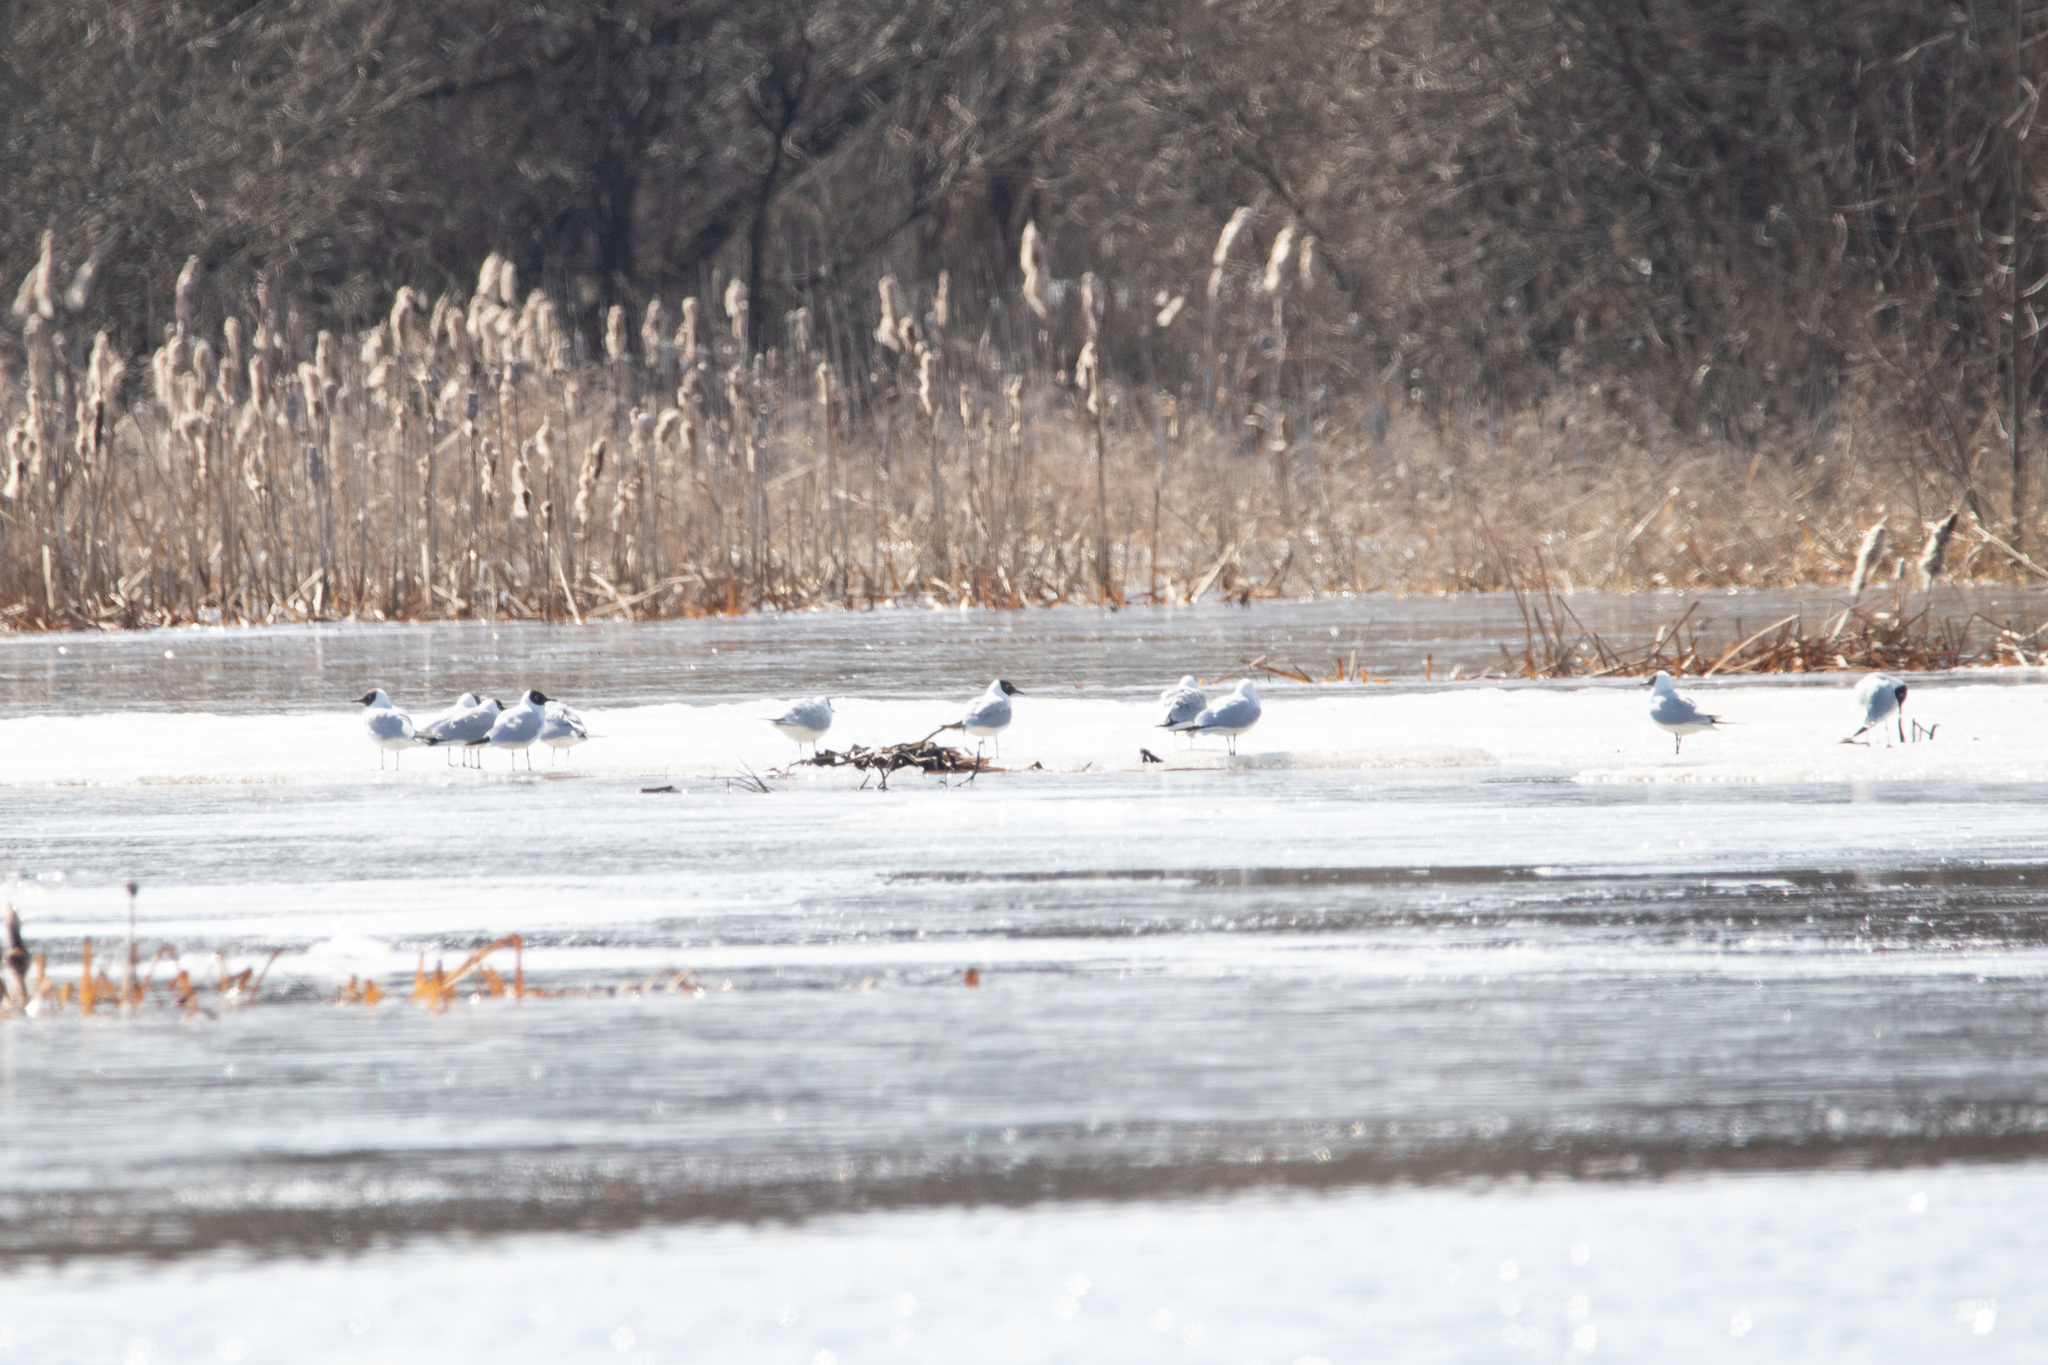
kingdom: Animalia
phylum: Chordata
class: Aves
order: Charadriiformes
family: Laridae
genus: Chroicocephalus
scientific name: Chroicocephalus ridibundus
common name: Black-headed gull
